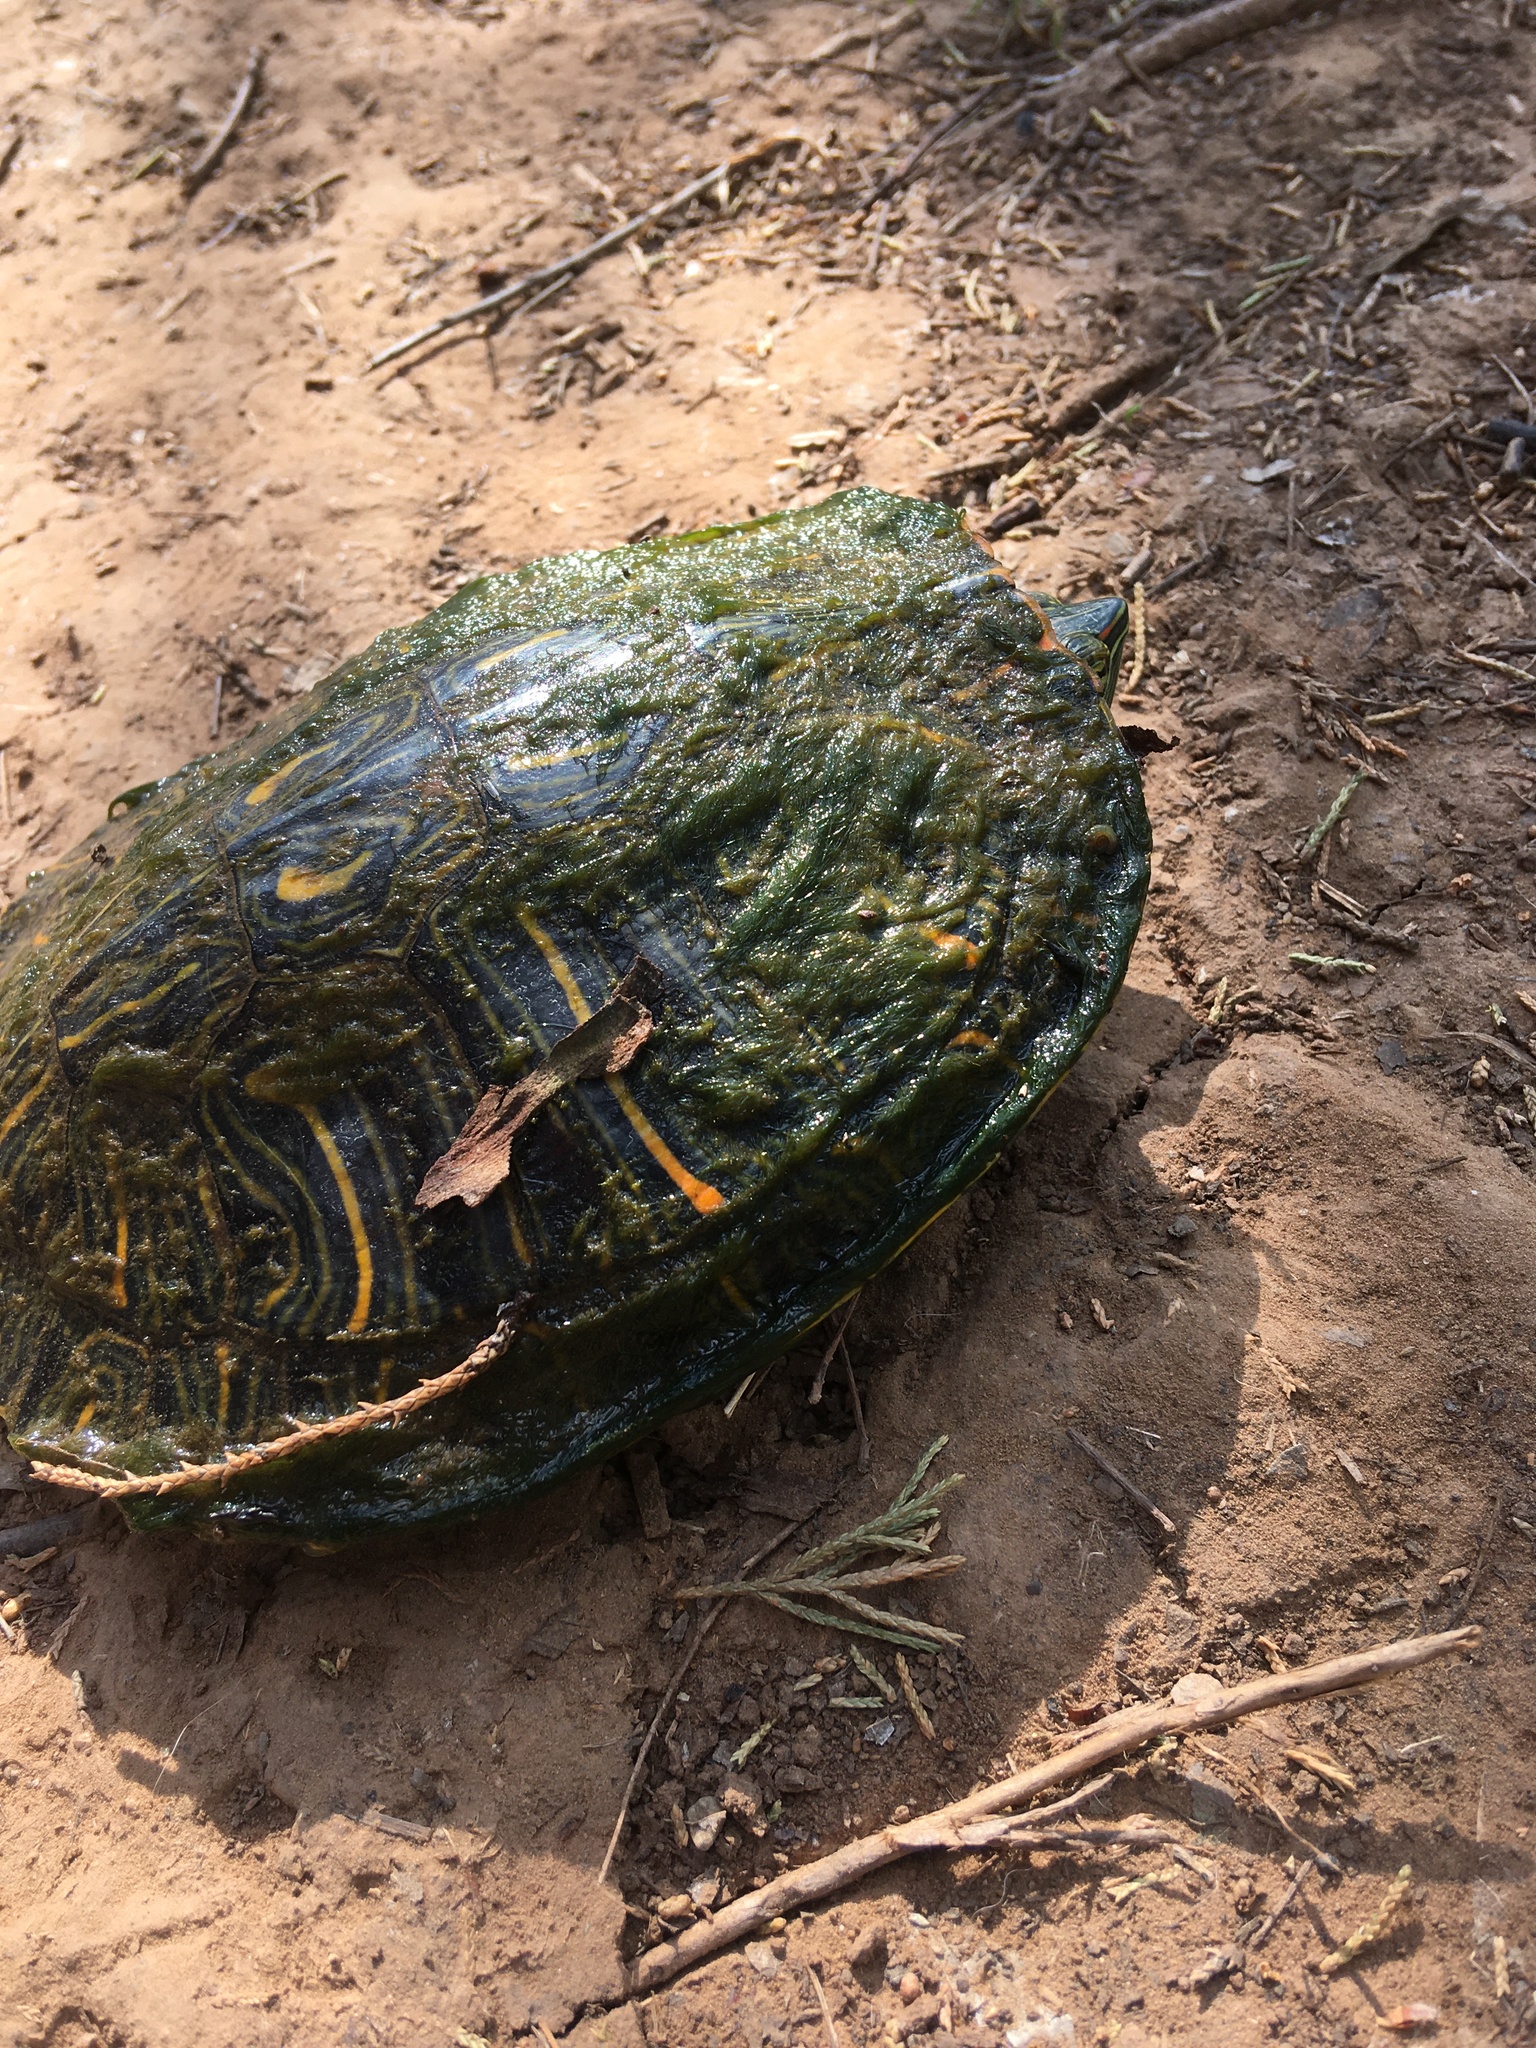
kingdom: Animalia
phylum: Chordata
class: Testudines
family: Emydidae
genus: Trachemys
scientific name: Trachemys scripta
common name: Slider
